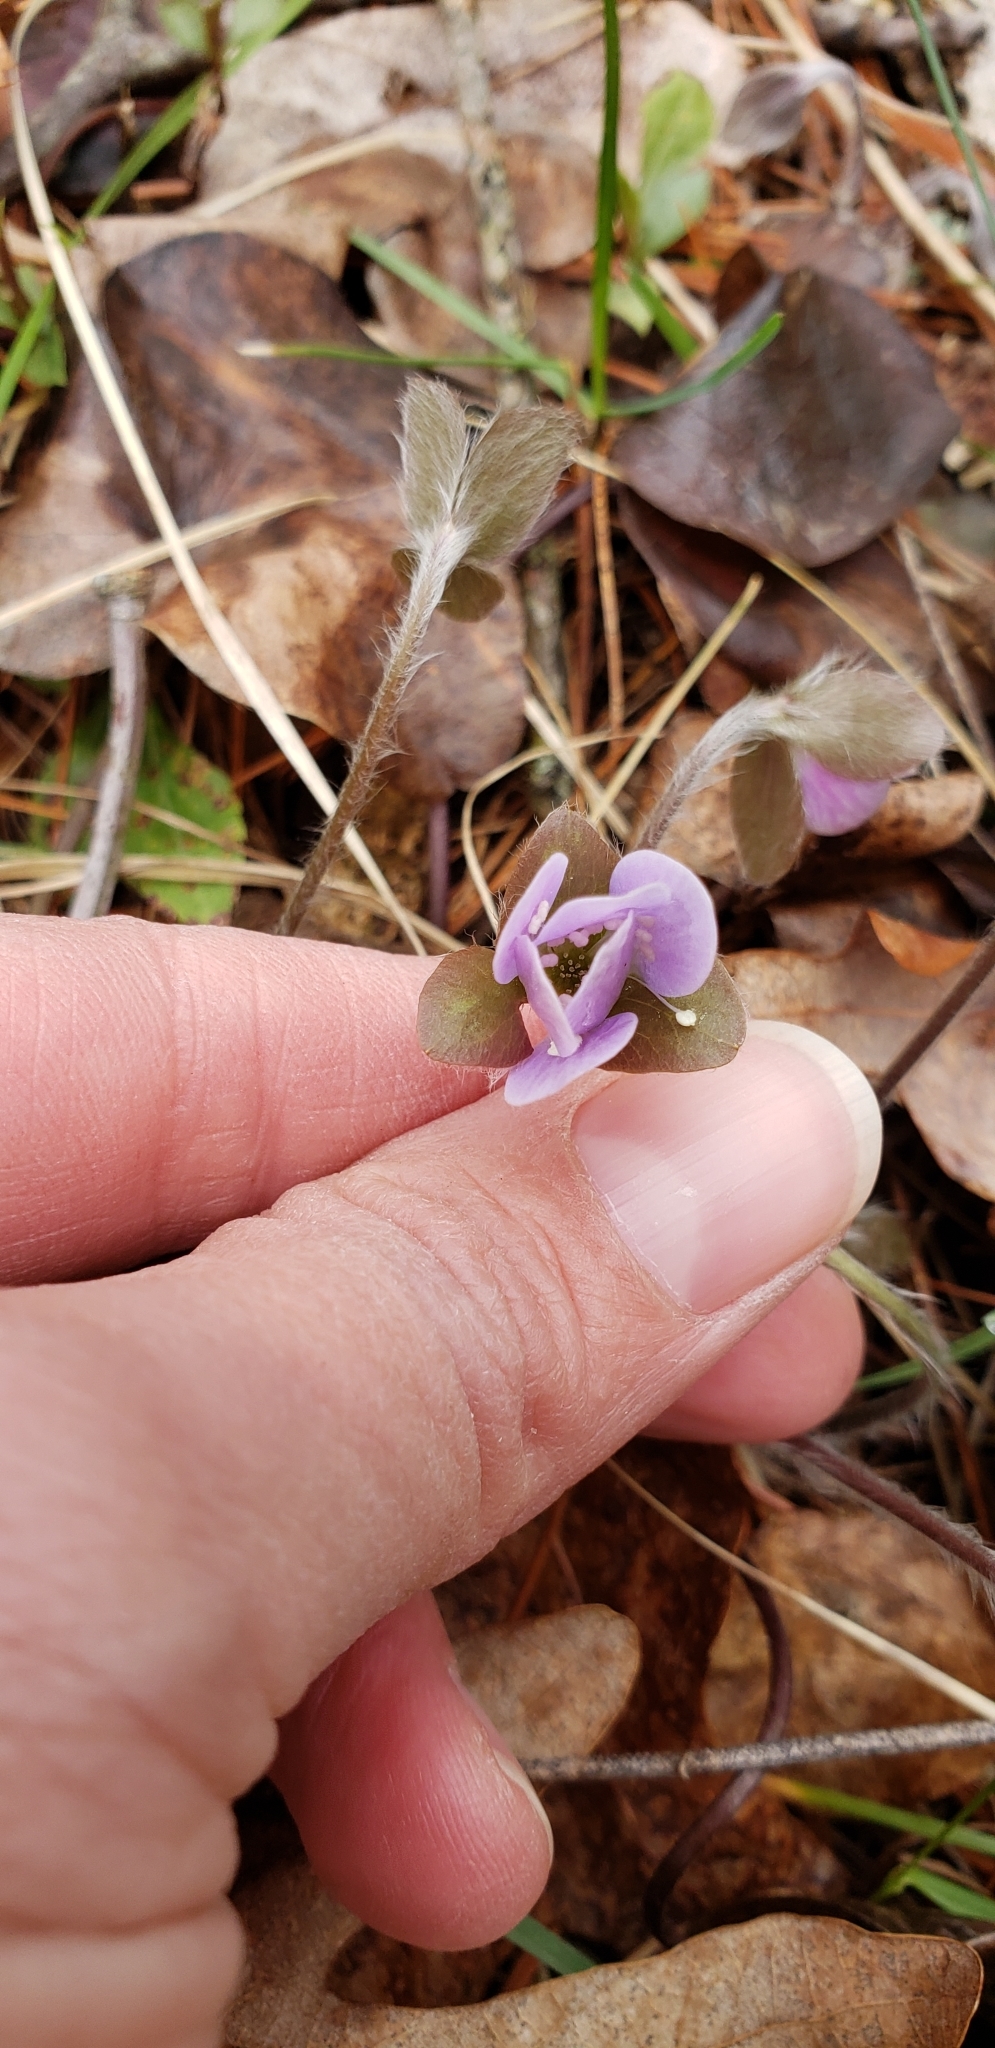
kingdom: Plantae
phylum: Tracheophyta
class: Magnoliopsida
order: Ranunculales
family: Ranunculaceae
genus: Hepatica
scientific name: Hepatica americana
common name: American hepatica
